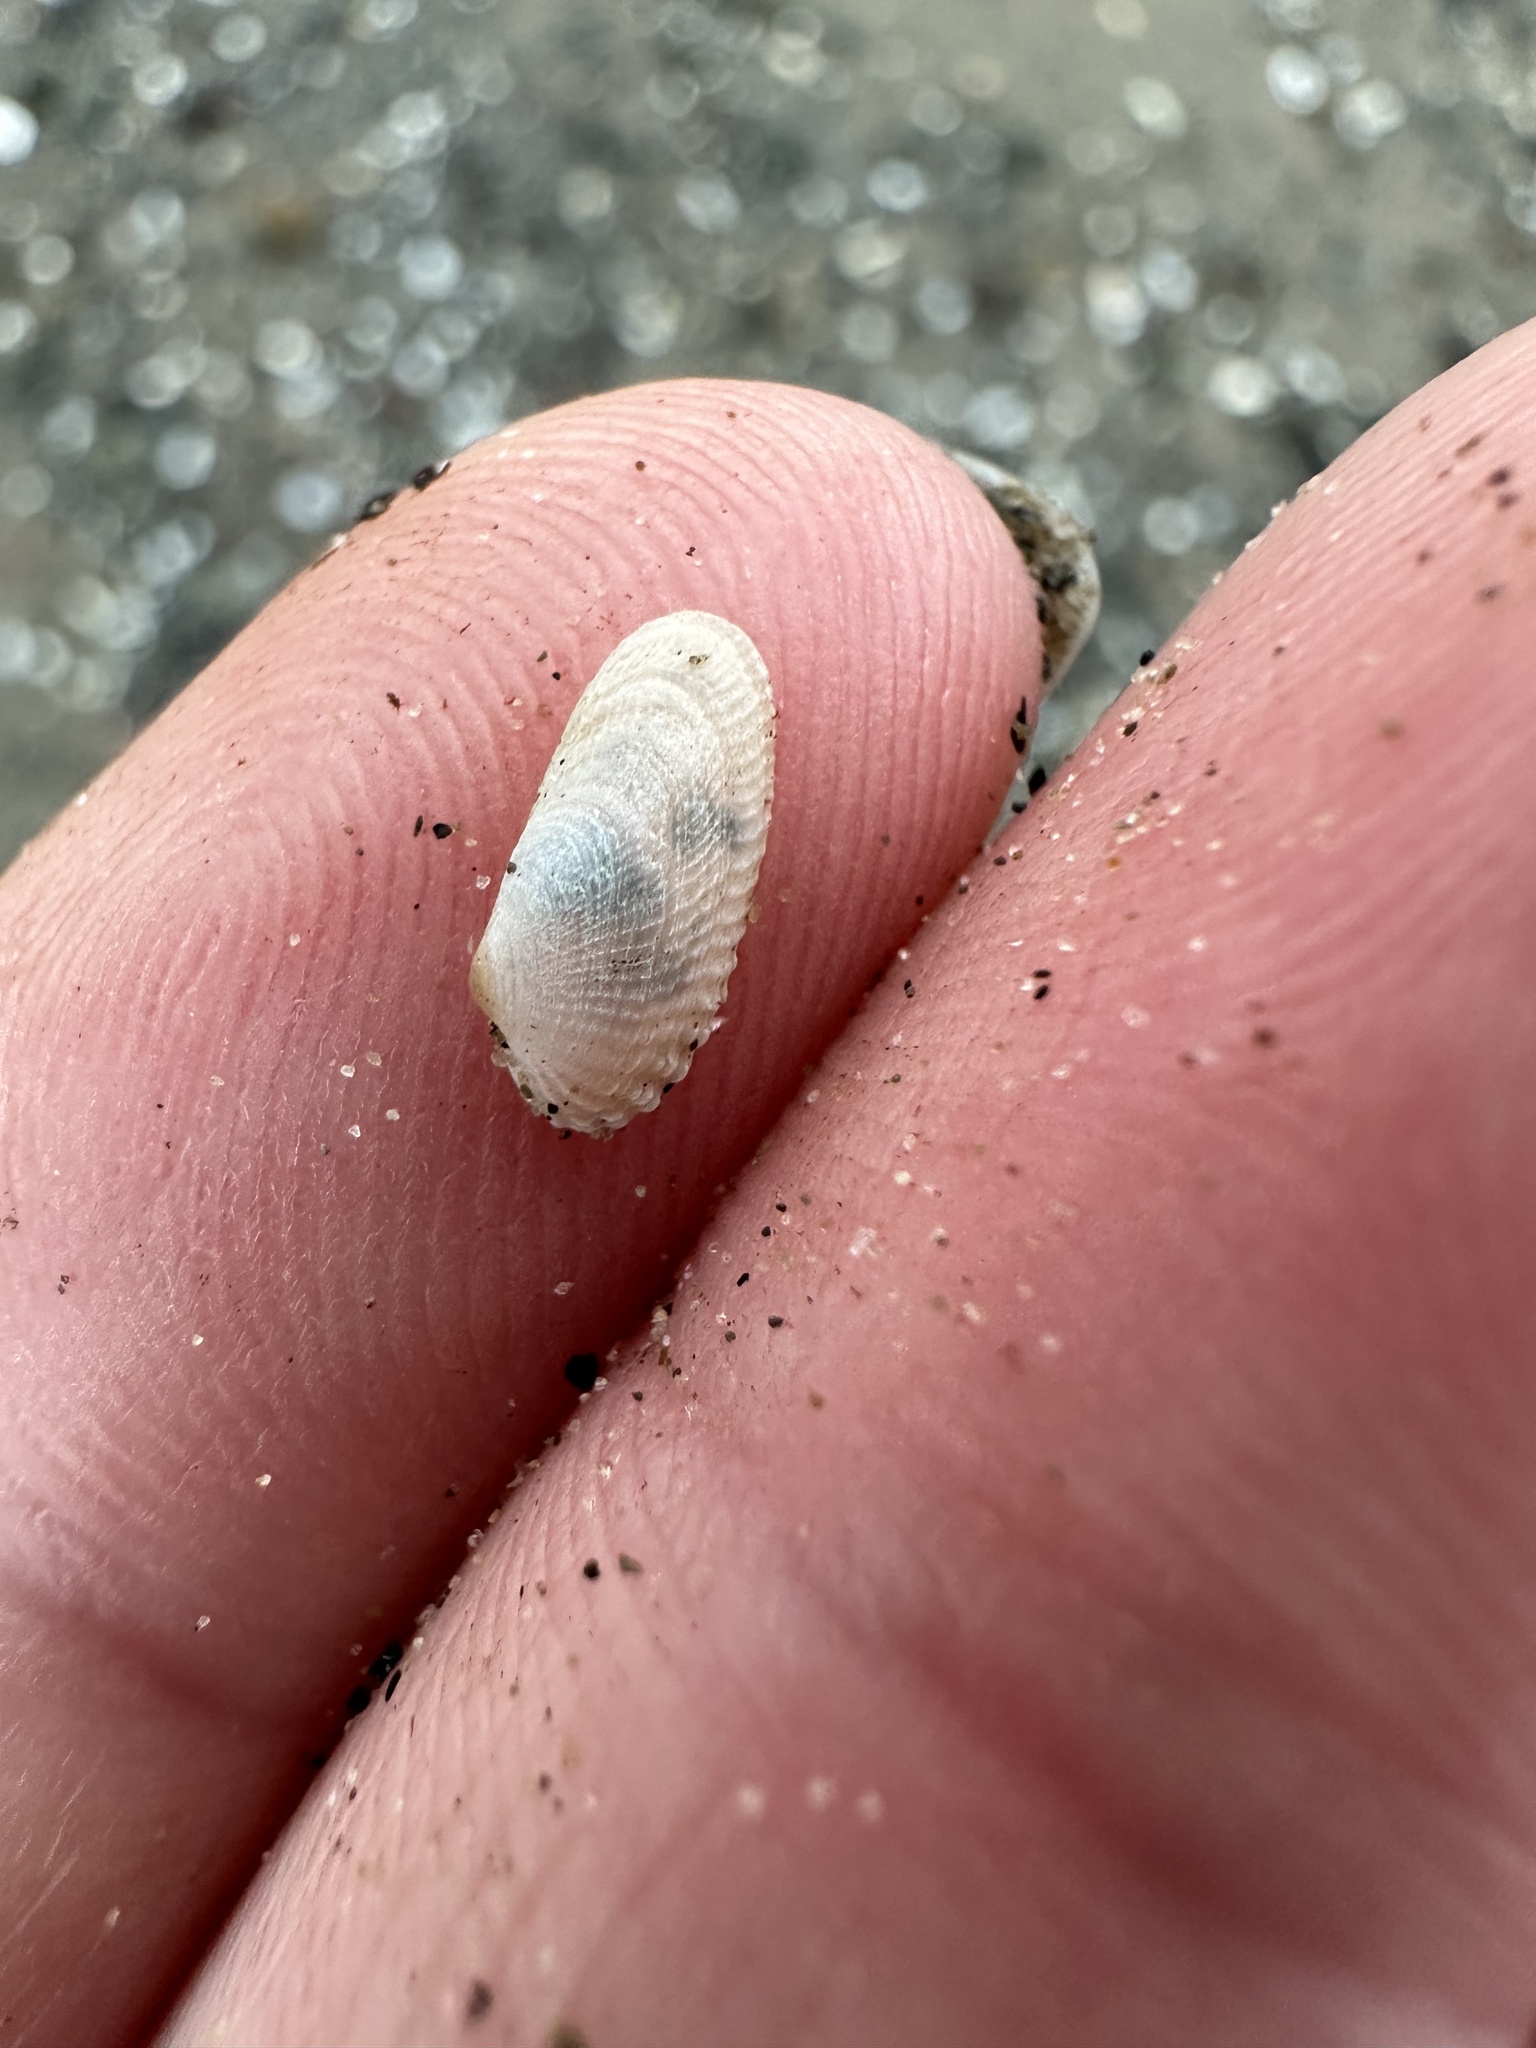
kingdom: Animalia
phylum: Mollusca
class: Bivalvia
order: Venerida
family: Veneridae
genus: Petricolaria
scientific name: Petricolaria pholadiformis
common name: American piddock
